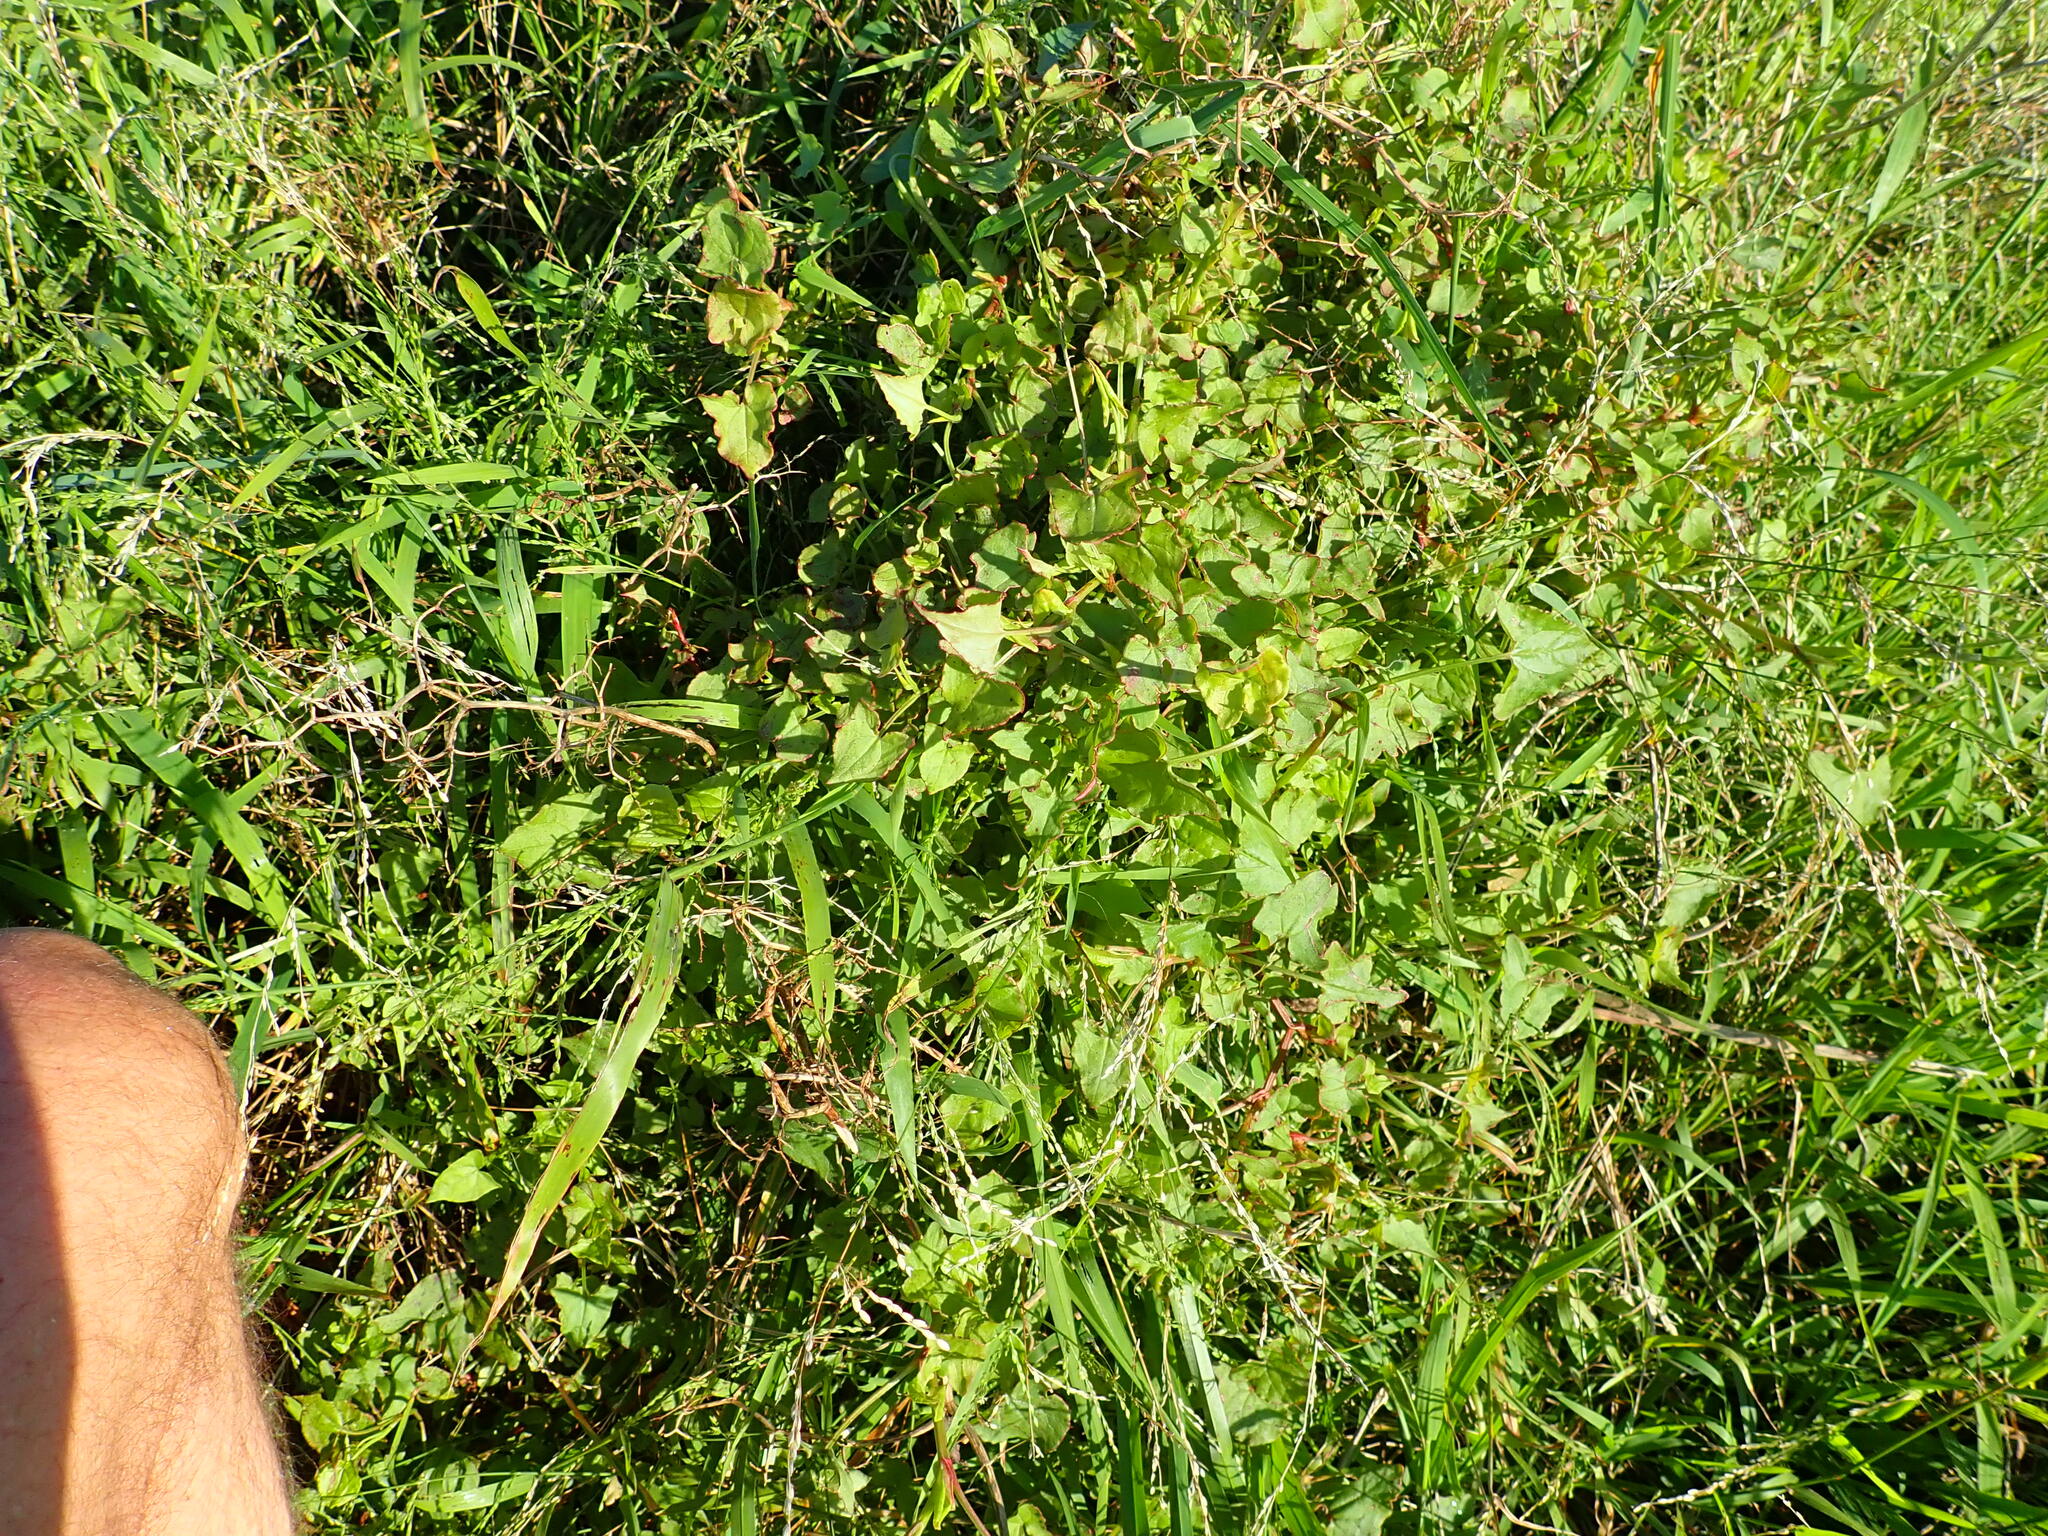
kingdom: Plantae
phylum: Tracheophyta
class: Magnoliopsida
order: Caryophyllales
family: Polygonaceae
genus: Rumex
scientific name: Rumex sagittatus
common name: Climbing dock
